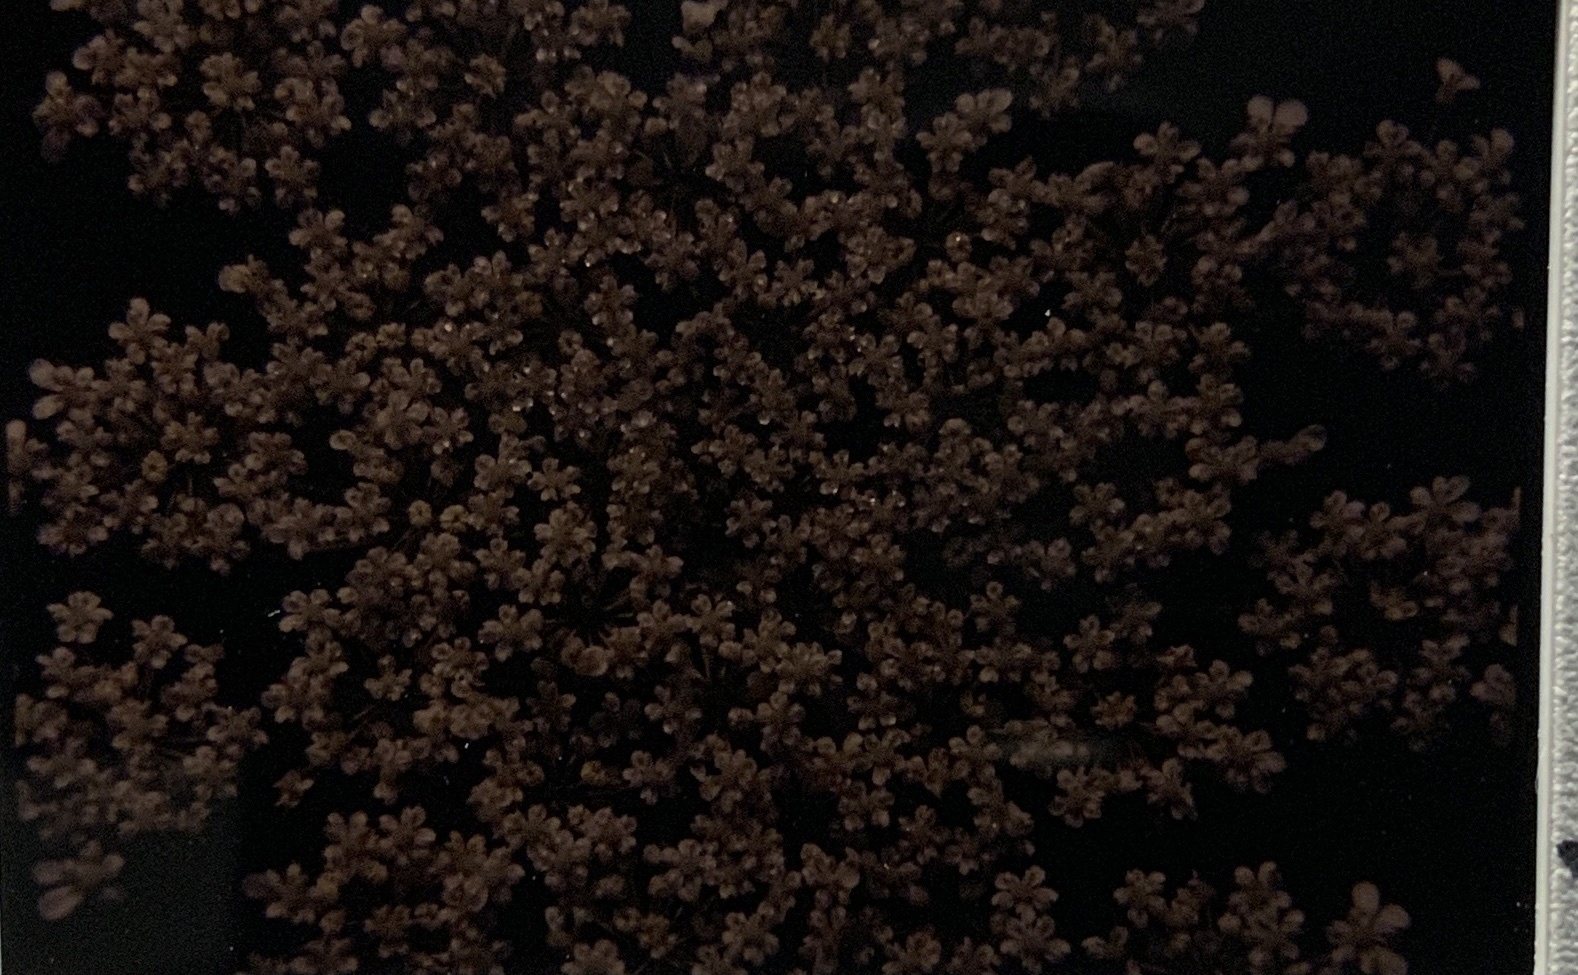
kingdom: Plantae
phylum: Tracheophyta
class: Magnoliopsida
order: Apiales
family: Apiaceae
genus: Daucus
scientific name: Daucus carota
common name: Wild carrot
